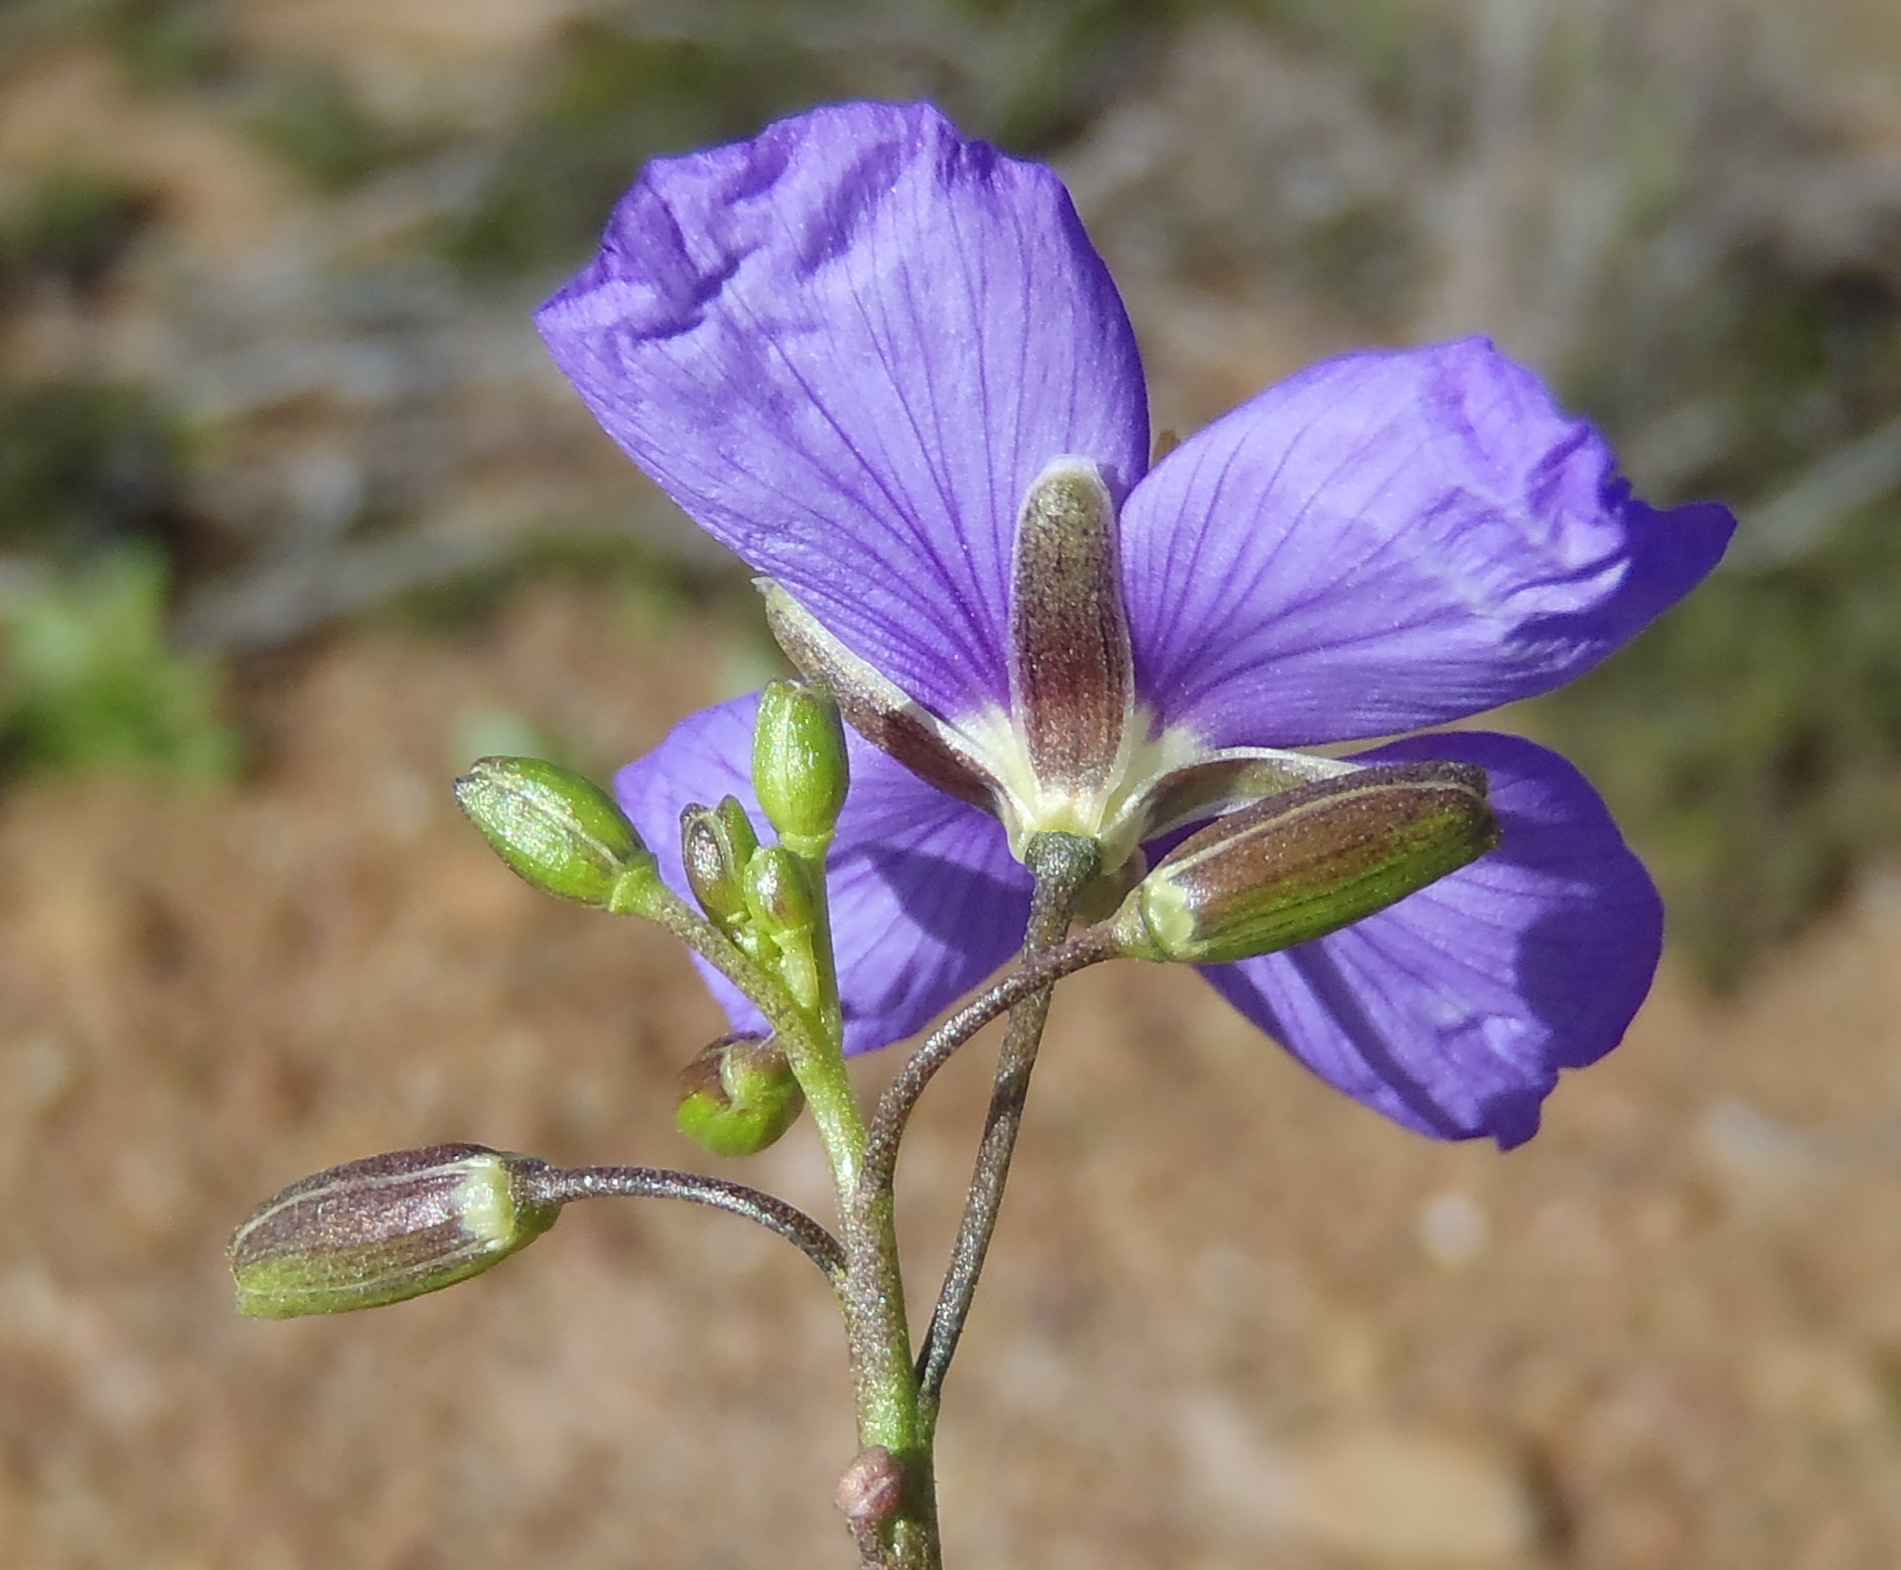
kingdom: Plantae
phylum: Tracheophyta
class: Magnoliopsida
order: Brassicales
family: Brassicaceae
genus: Heliophila
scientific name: Heliophila subulata
